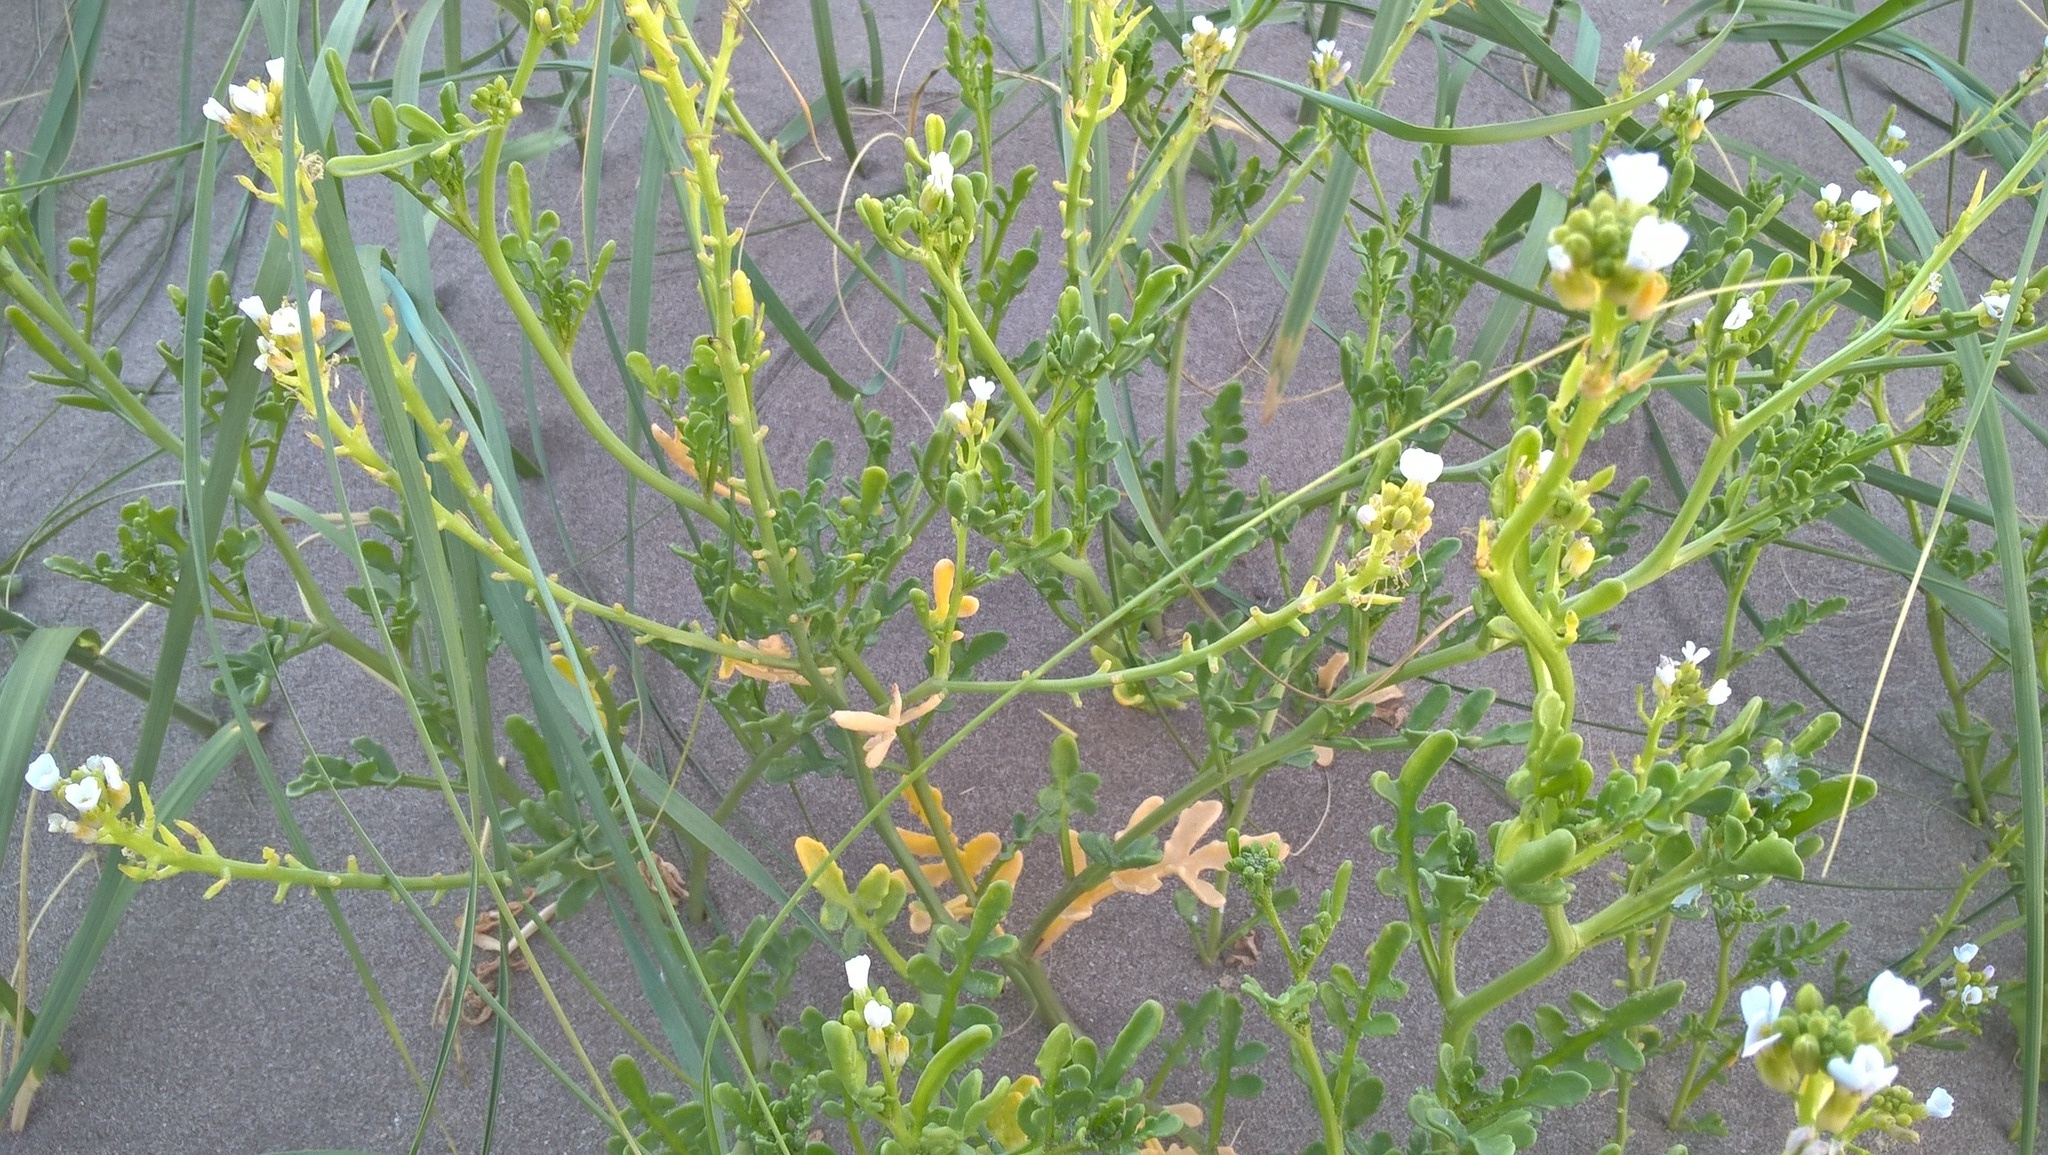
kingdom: Plantae
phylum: Tracheophyta
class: Magnoliopsida
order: Brassicales
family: Brassicaceae
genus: Cakile
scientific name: Cakile maritima
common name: Sea rocket
